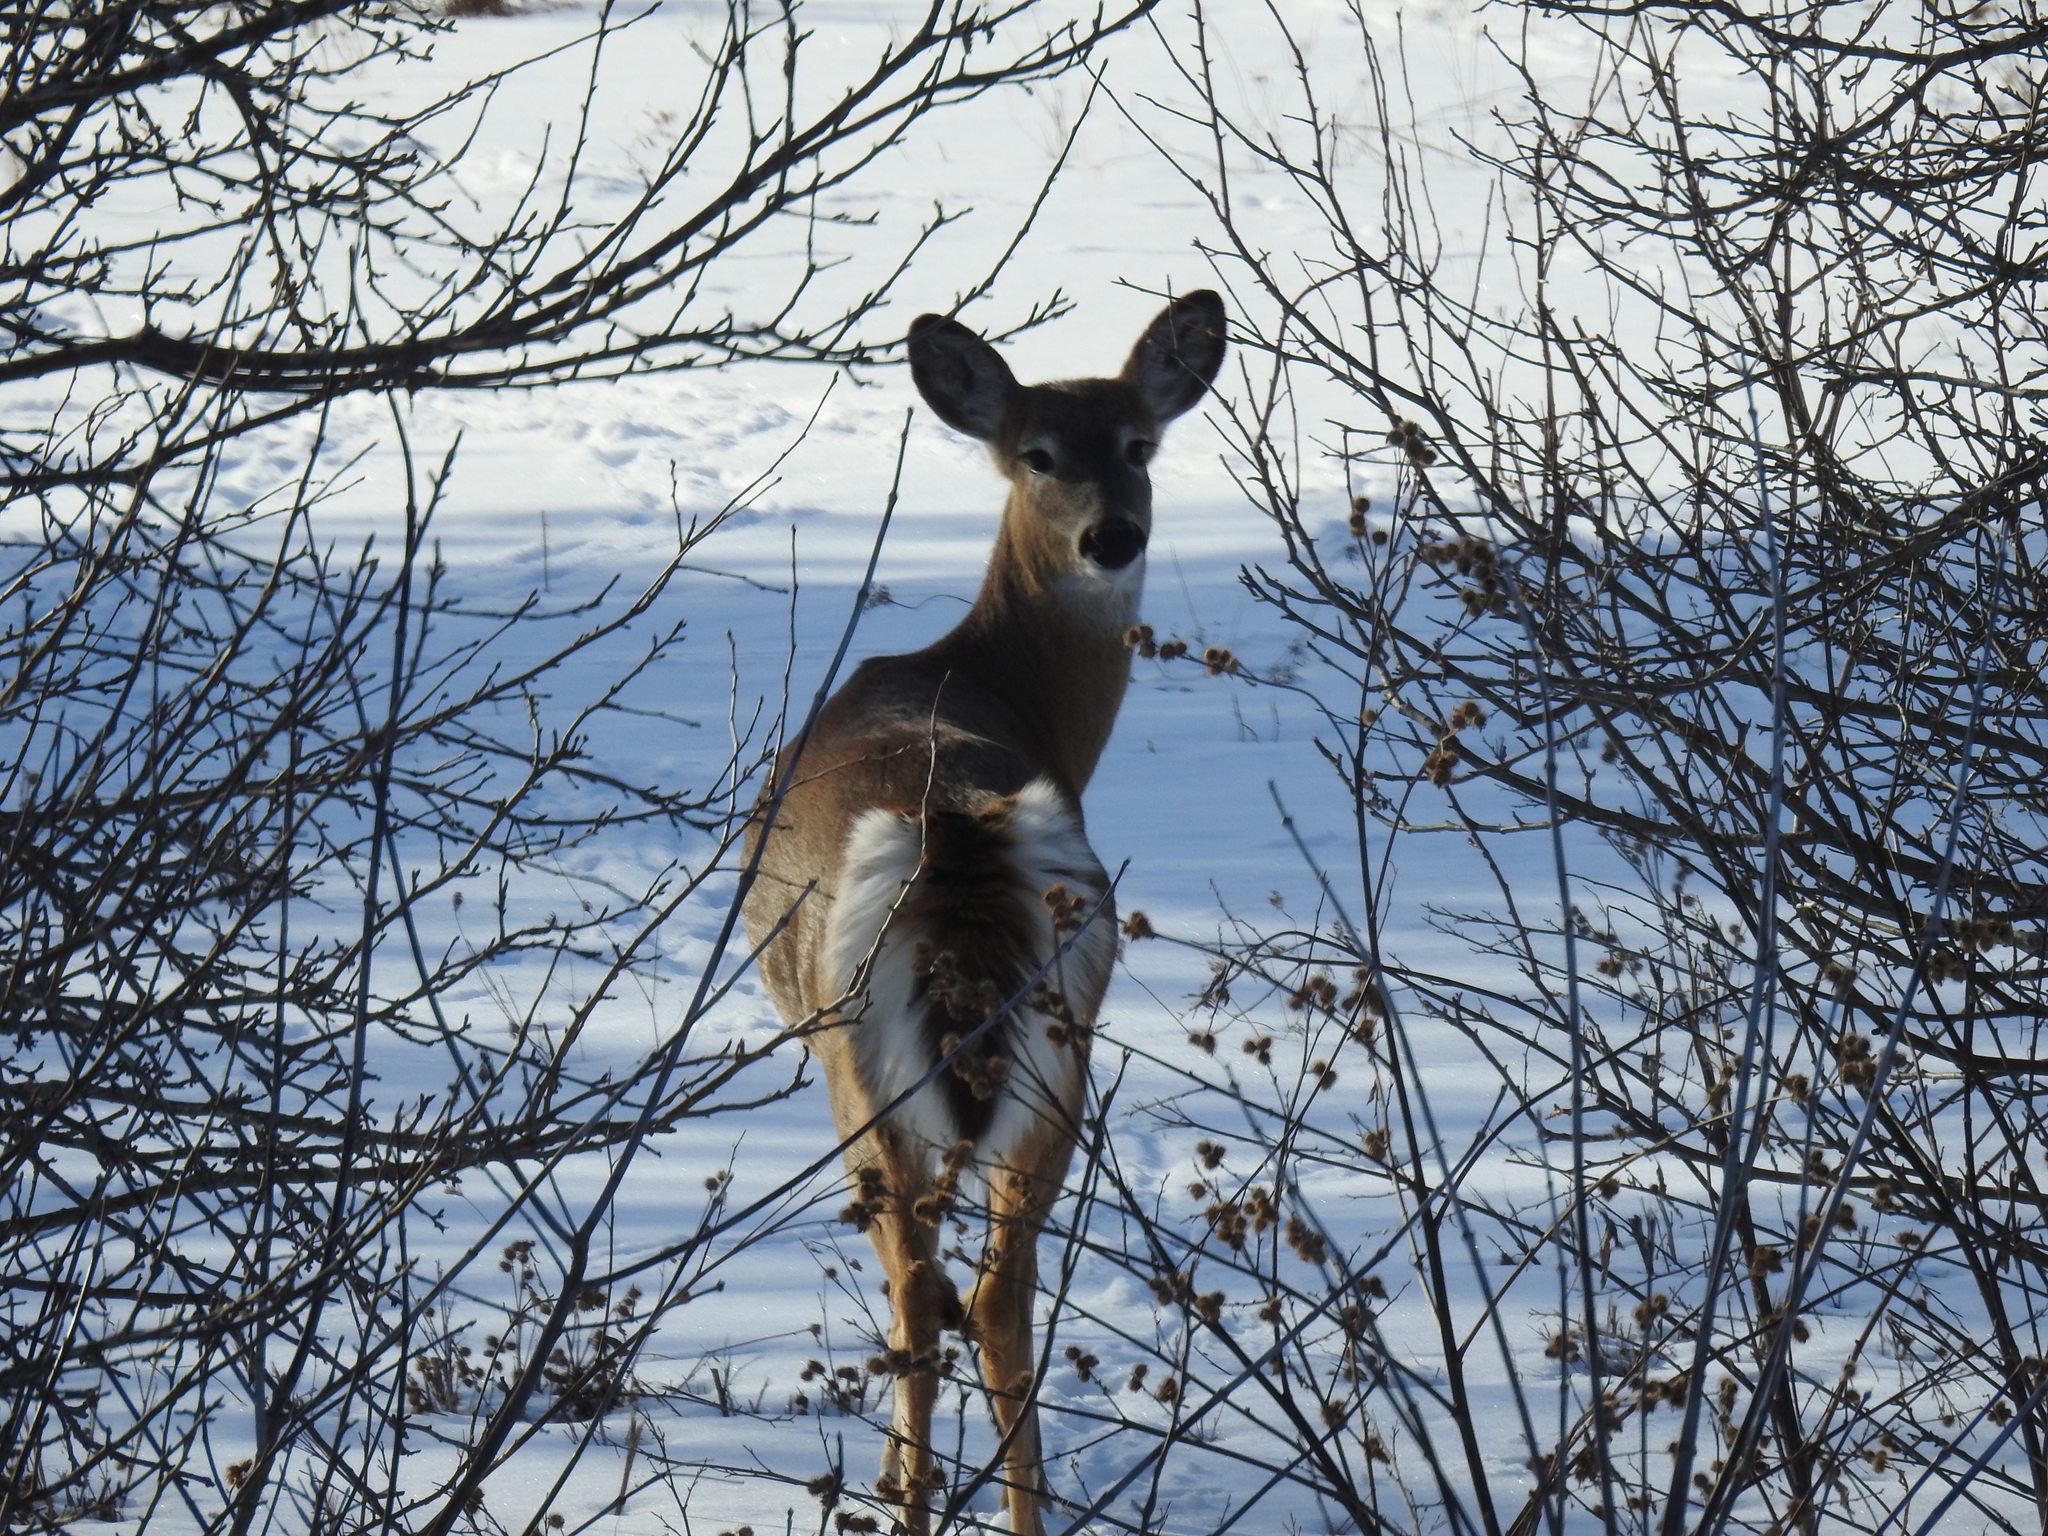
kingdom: Animalia
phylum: Chordata
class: Mammalia
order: Artiodactyla
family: Cervidae
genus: Odocoileus
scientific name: Odocoileus virginianus
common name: White-tailed deer
